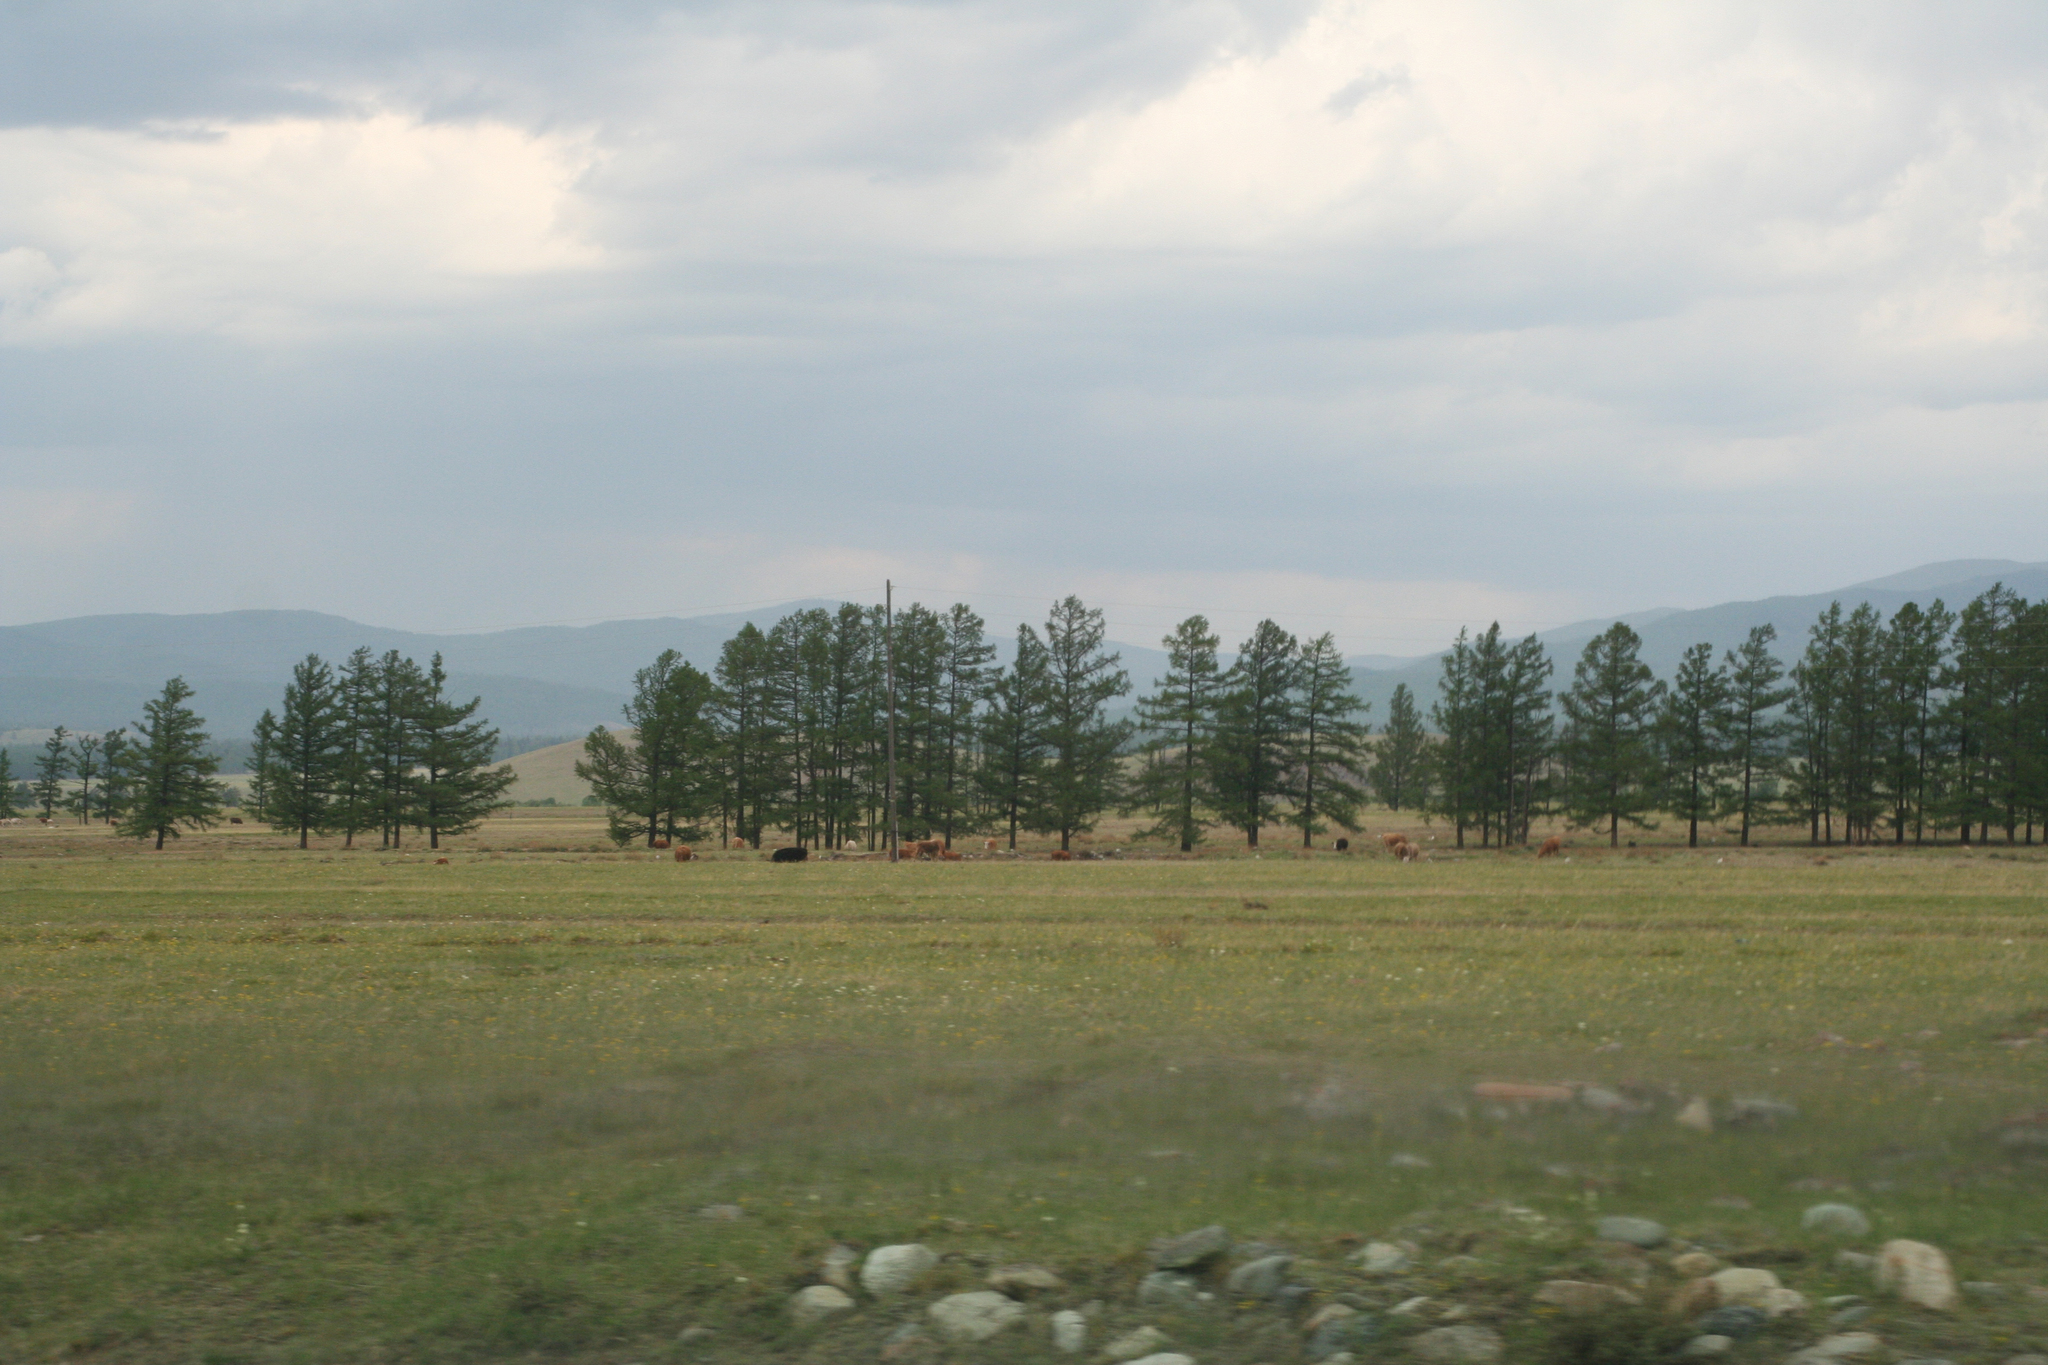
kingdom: Plantae
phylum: Tracheophyta
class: Pinopsida
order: Pinales
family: Pinaceae
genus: Larix
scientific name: Larix sibirica
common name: Siberian larch
